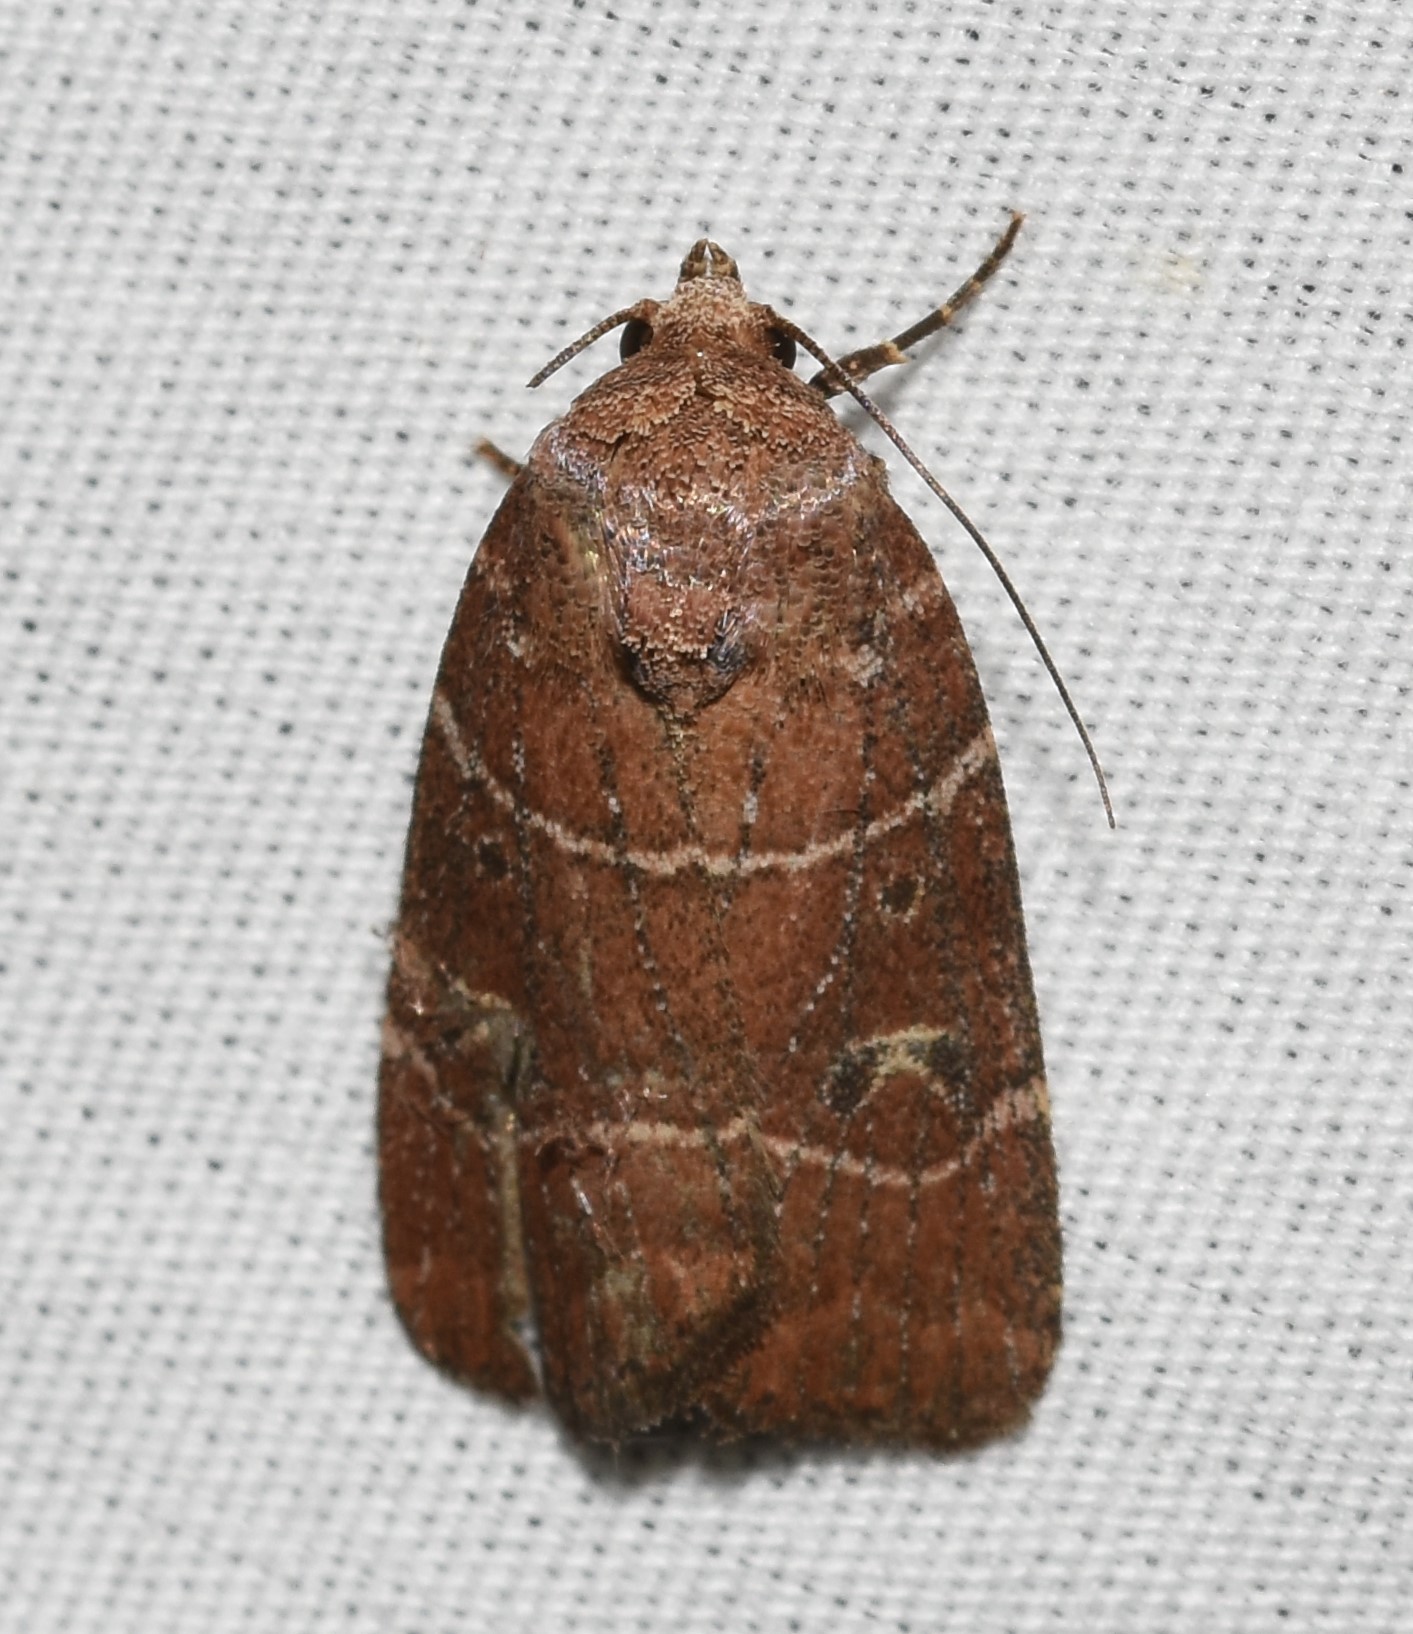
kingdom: Animalia
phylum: Arthropoda
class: Insecta
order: Lepidoptera
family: Noctuidae
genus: Elaphria
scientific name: Elaphria grata
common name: Grateful midget moth
